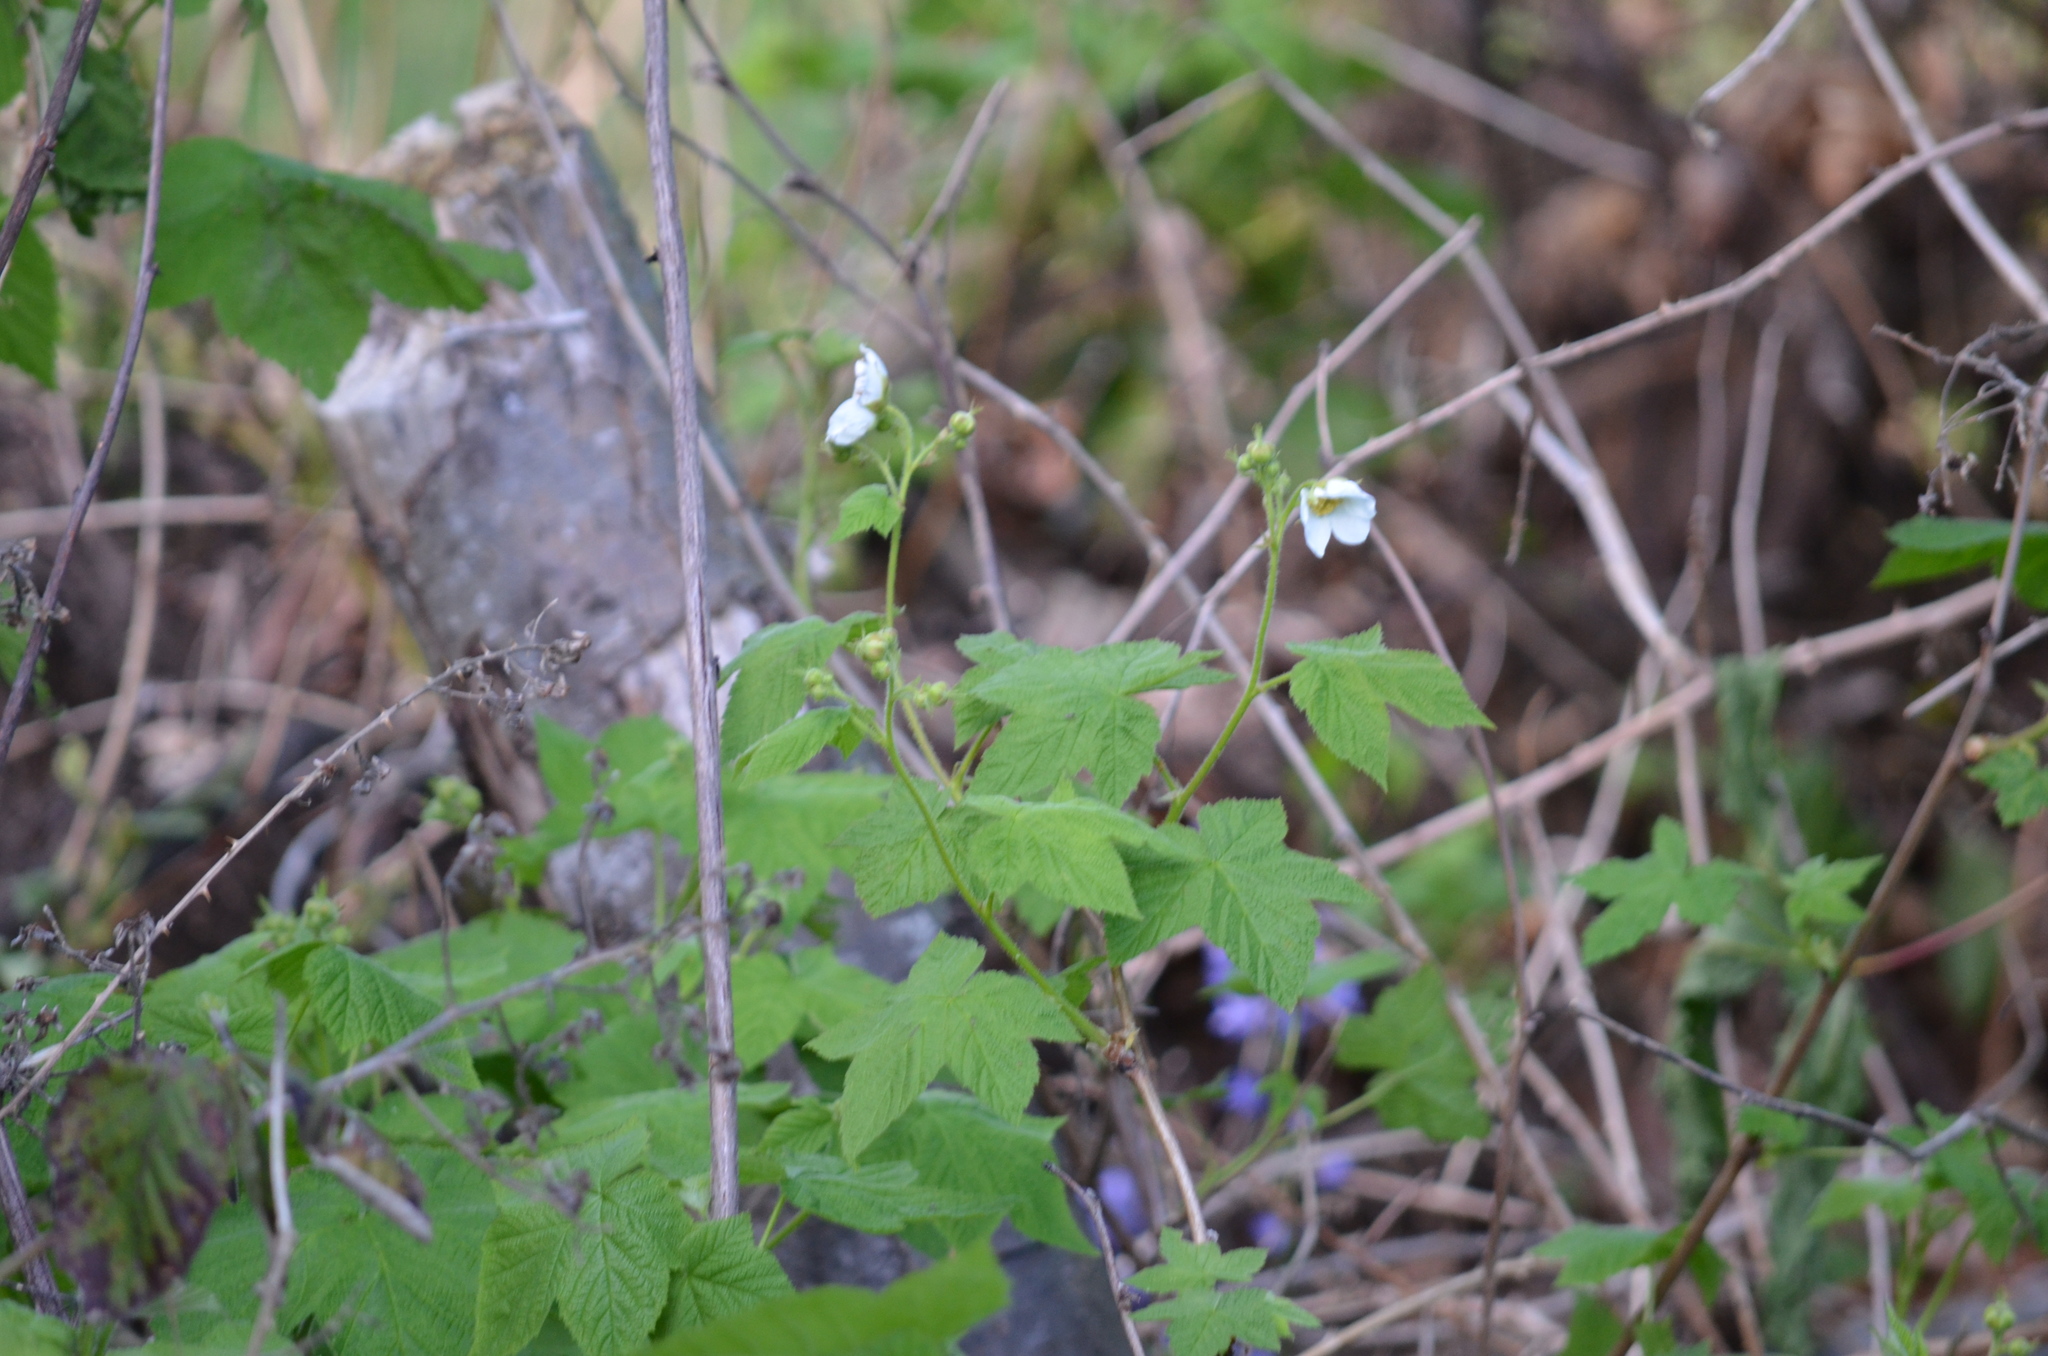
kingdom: Plantae
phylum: Tracheophyta
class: Magnoliopsida
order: Rosales
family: Rosaceae
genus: Rubus
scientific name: Rubus parviflorus
